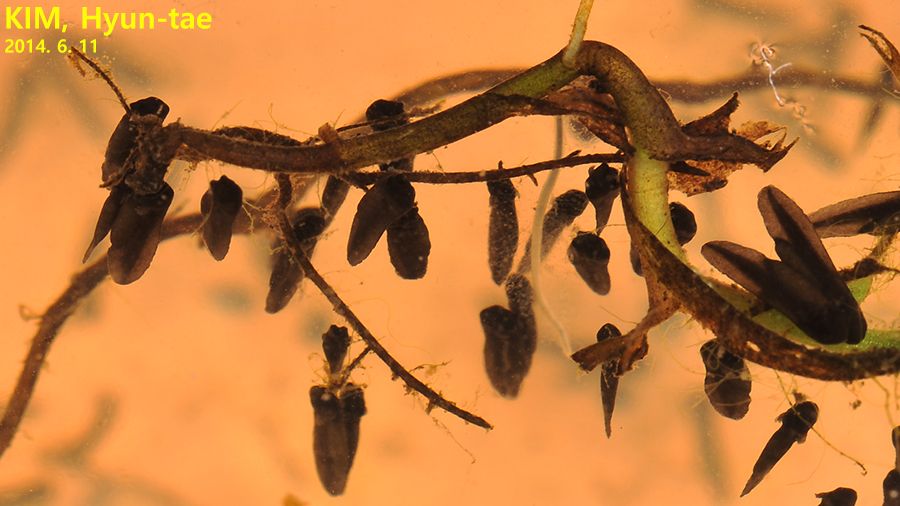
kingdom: Animalia
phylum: Chordata
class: Amphibia
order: Anura
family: Ranidae
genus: Lithobates
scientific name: Lithobates catesbeianus
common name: American bullfrog
